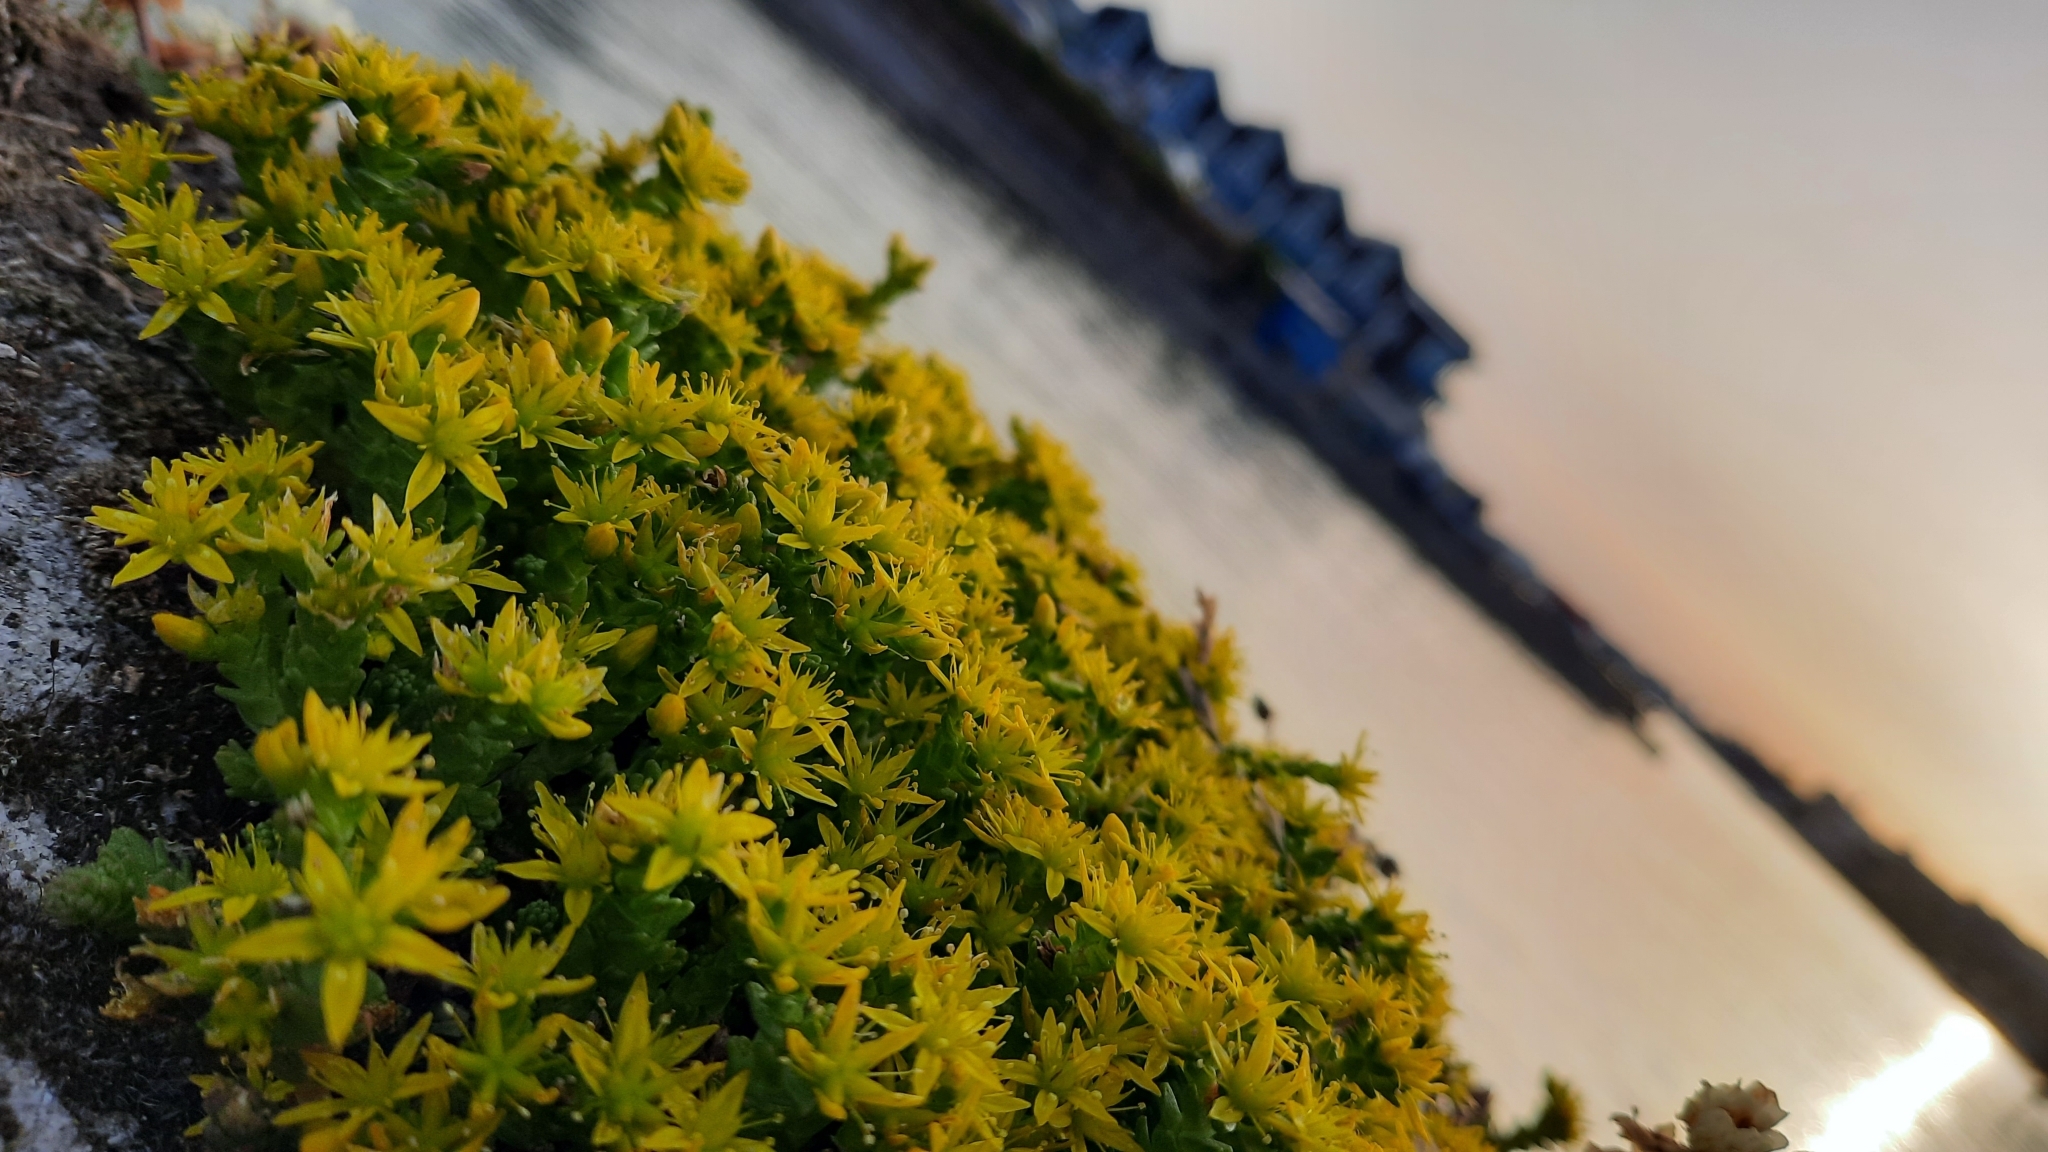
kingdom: Plantae
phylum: Tracheophyta
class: Magnoliopsida
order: Saxifragales
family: Crassulaceae
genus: Sedum
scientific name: Sedum acre
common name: Biting stonecrop
